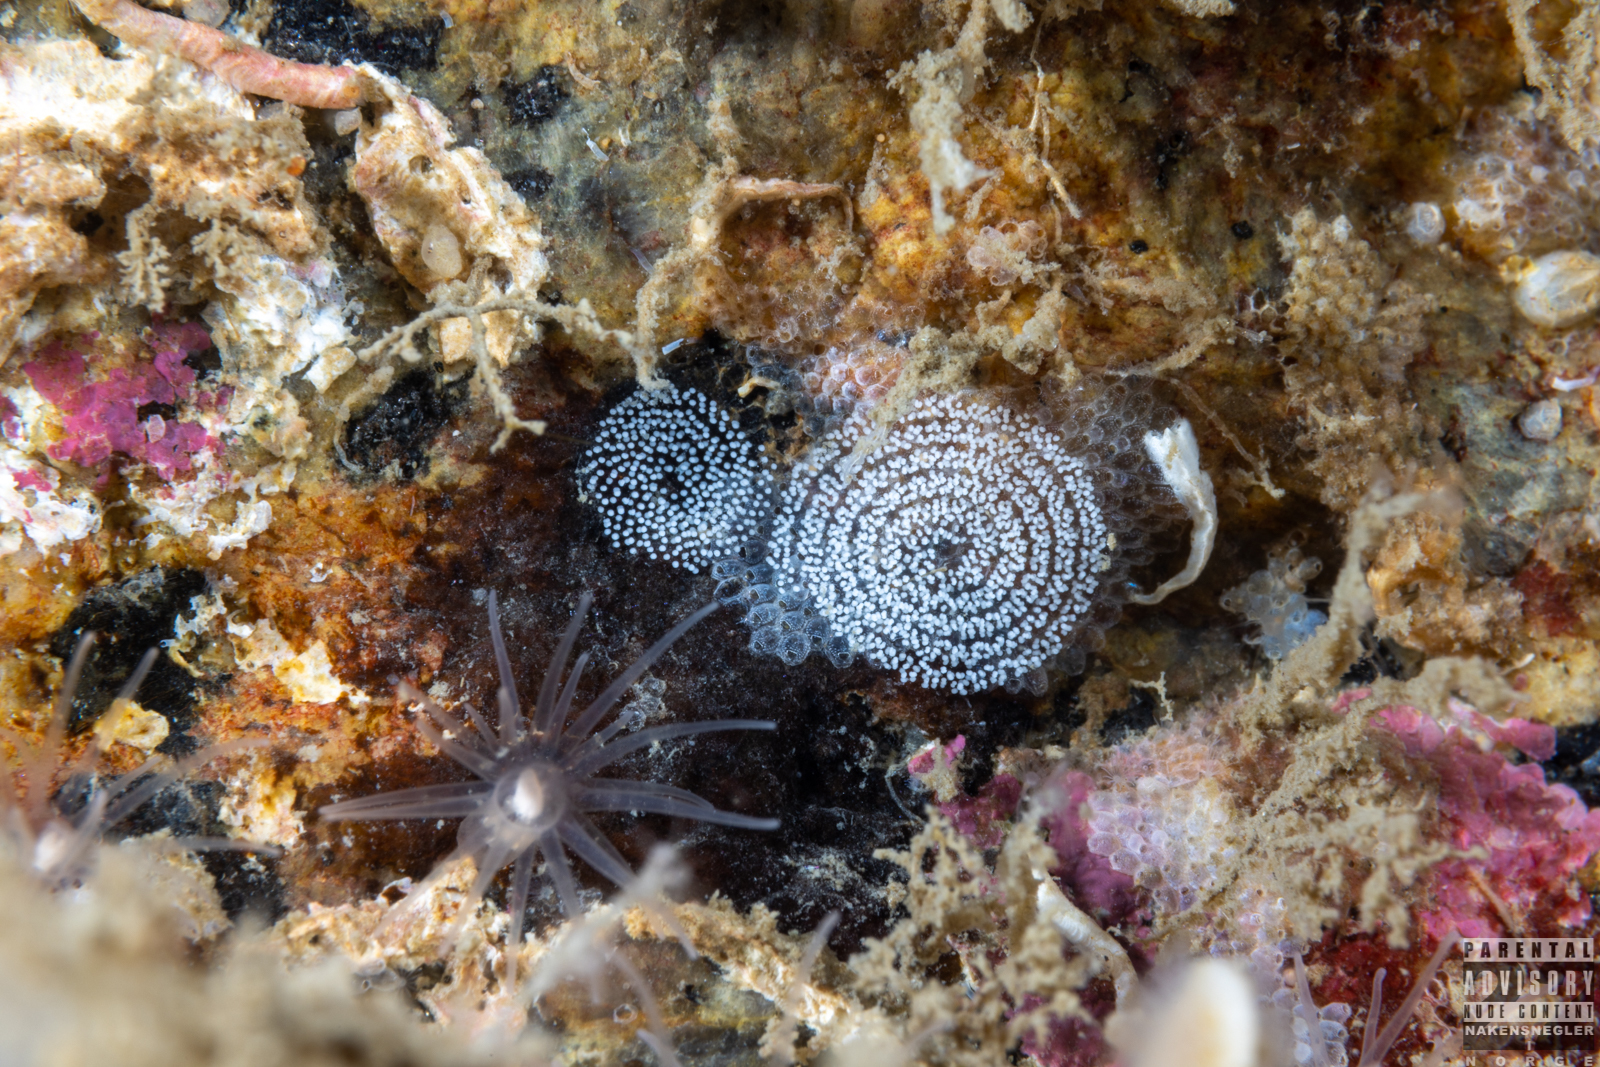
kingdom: Animalia
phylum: Mollusca
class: Gastropoda
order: Nudibranchia
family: Onchidorididae
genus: Atalodoris
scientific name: Atalodoris pusilla
